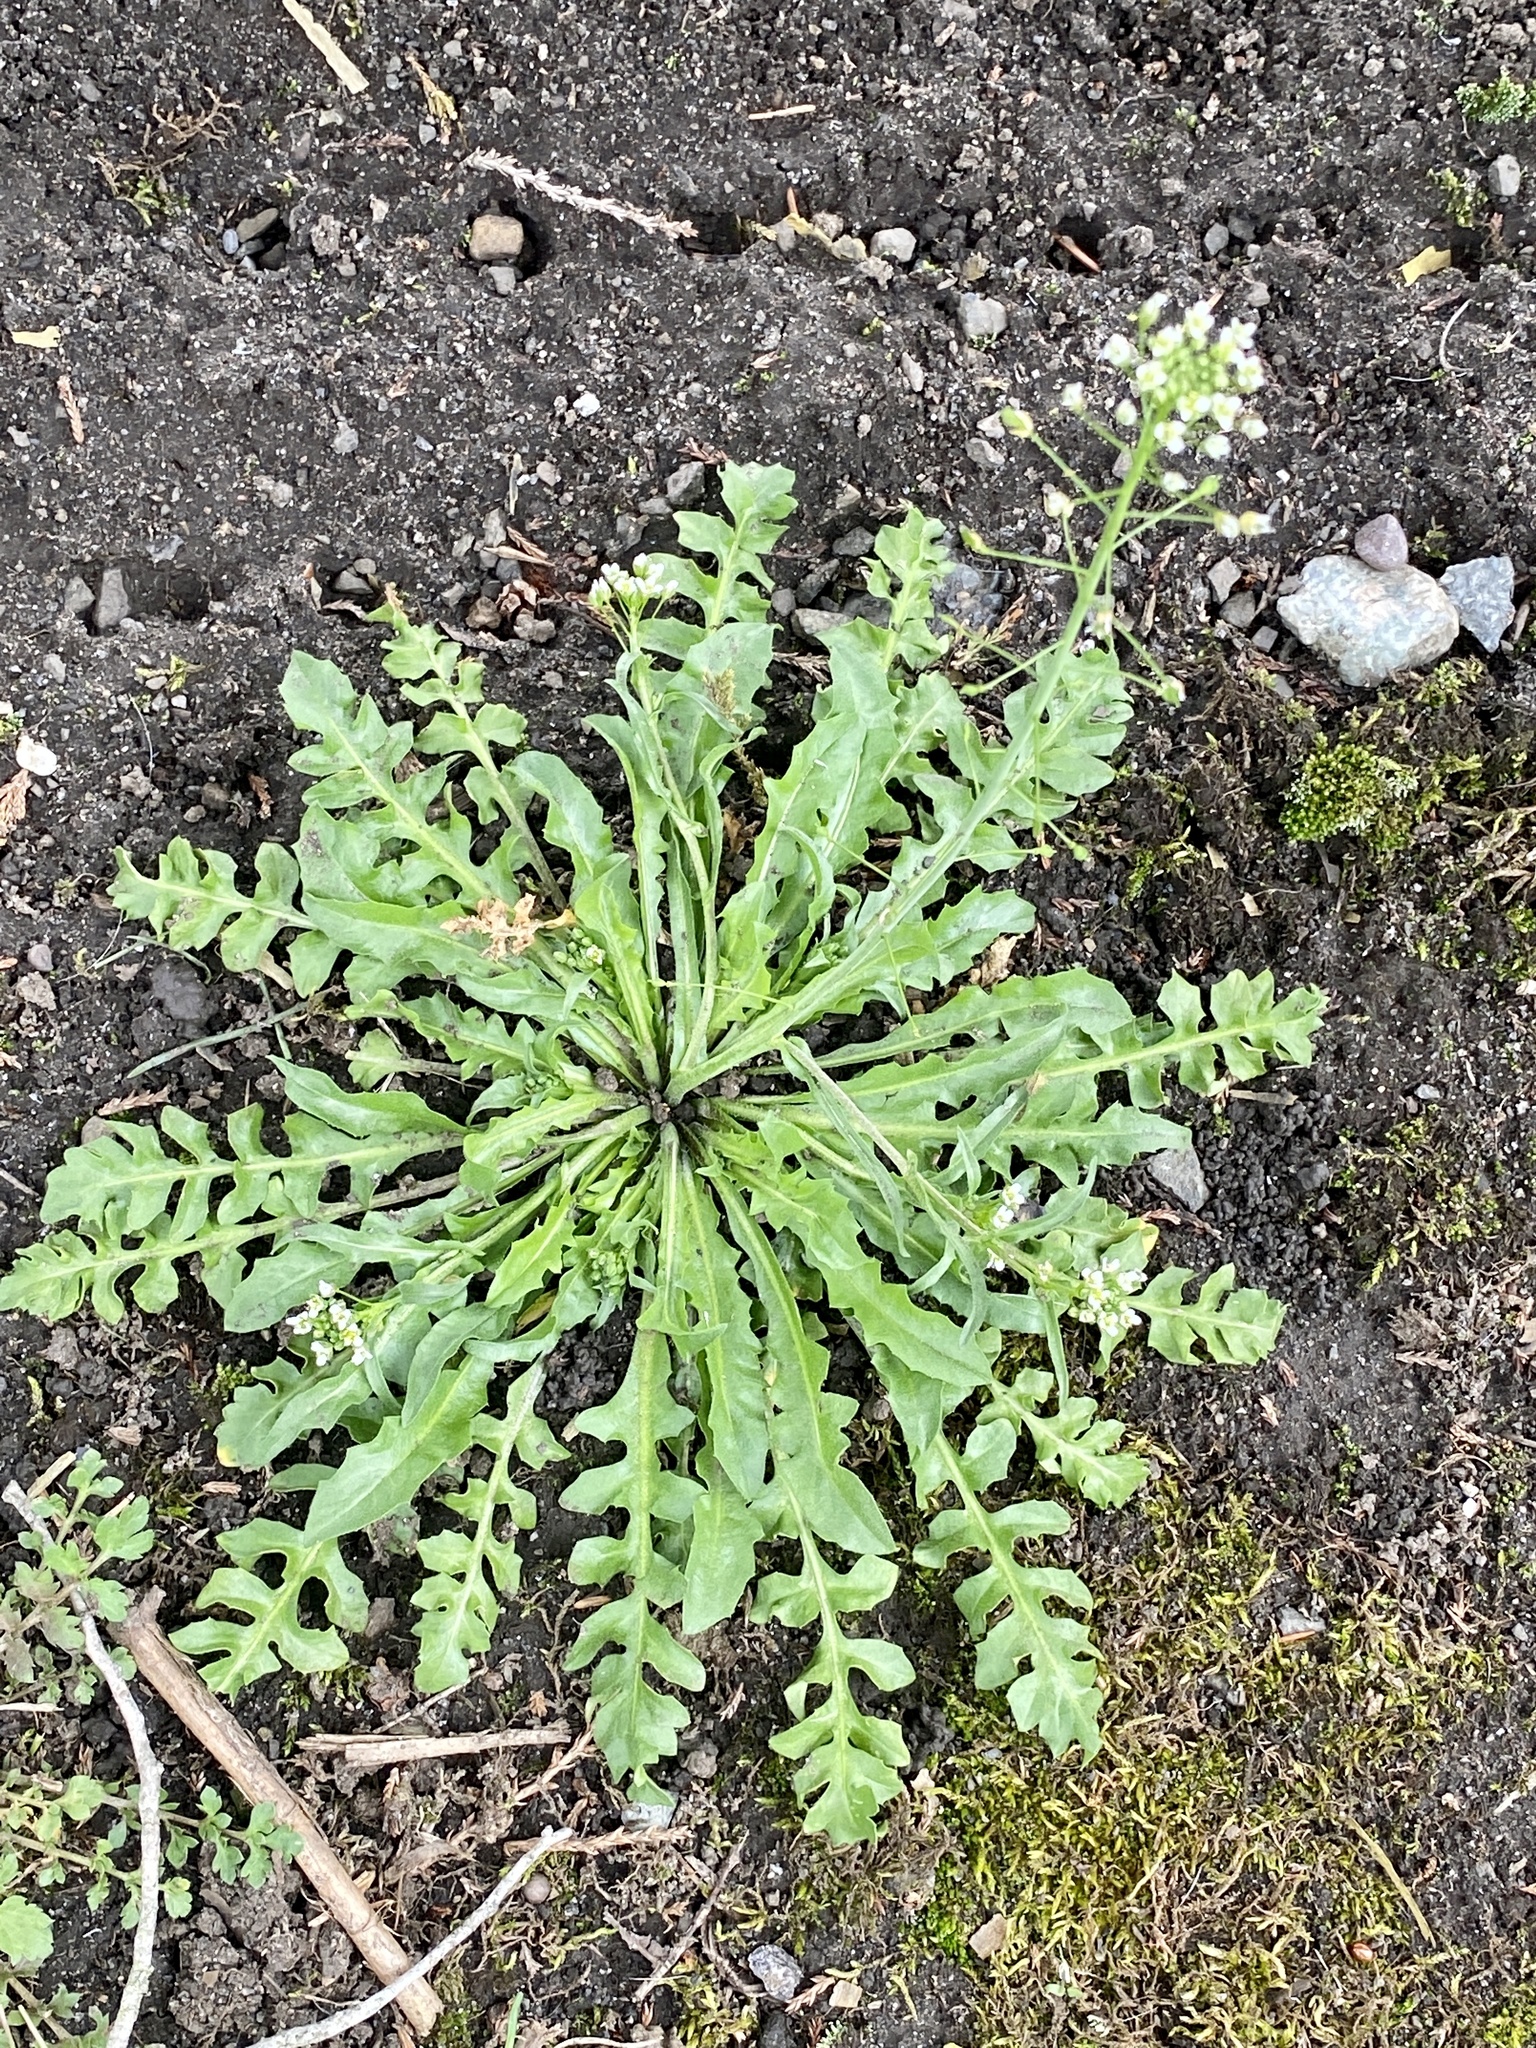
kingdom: Plantae
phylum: Tracheophyta
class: Magnoliopsida
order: Brassicales
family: Brassicaceae
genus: Capsella
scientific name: Capsella bursa-pastoris
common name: Shepherd's purse
